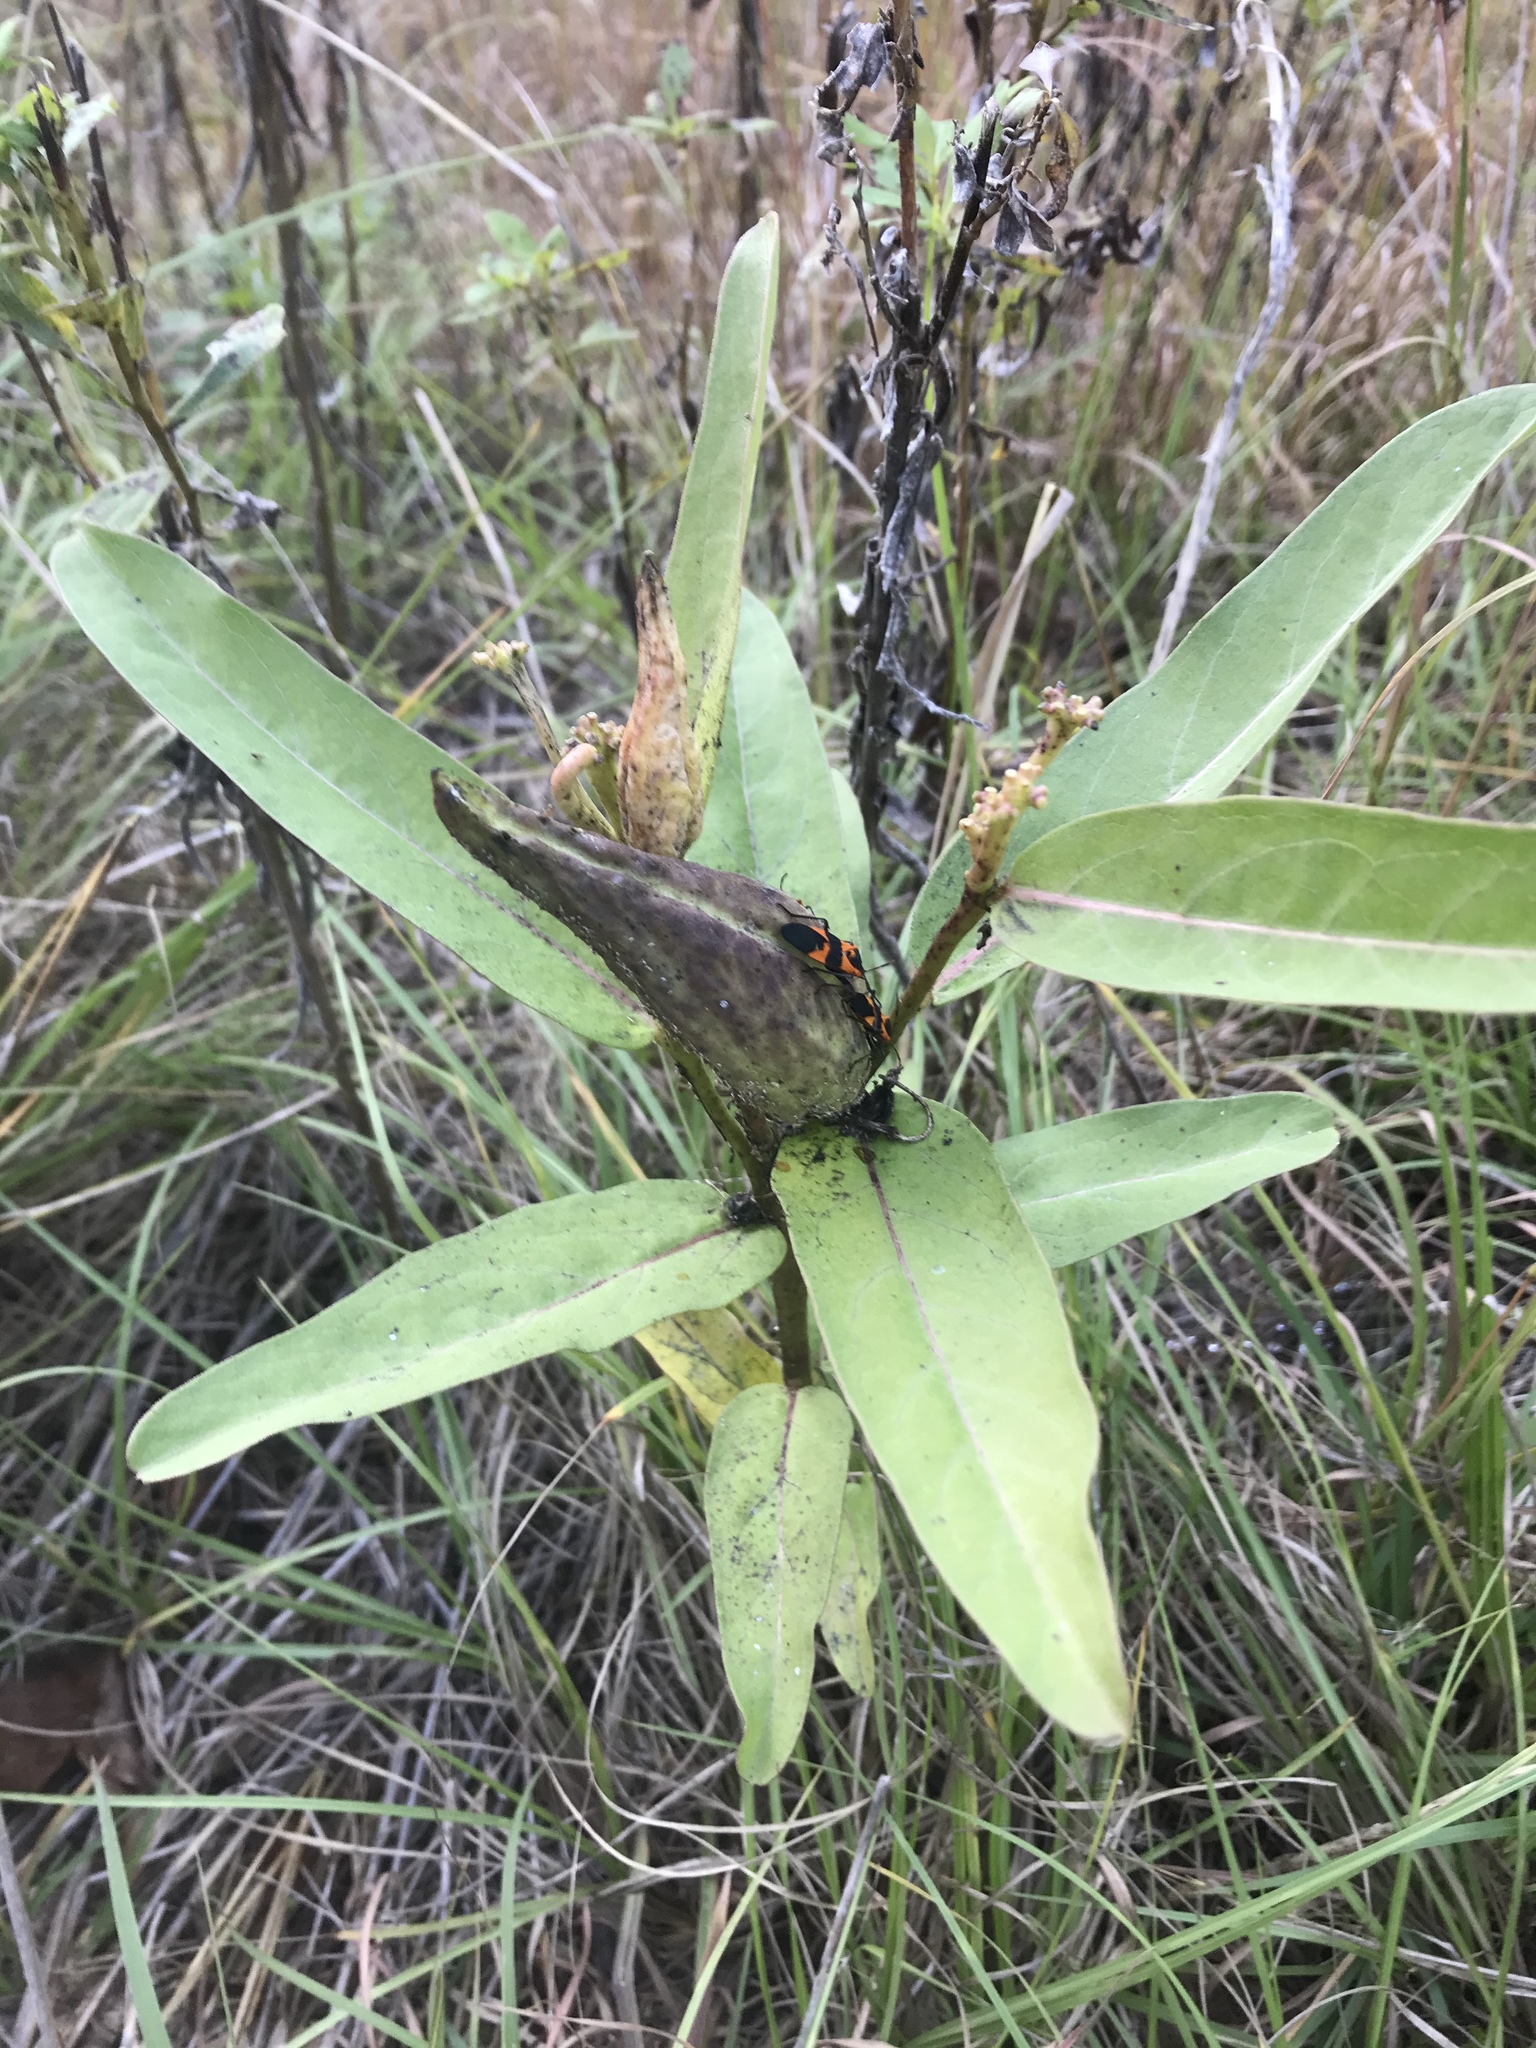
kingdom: Plantae
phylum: Tracheophyta
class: Magnoliopsida
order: Gentianales
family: Apocynaceae
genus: Asclepias
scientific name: Asclepias viridis
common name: Antelope-horns
